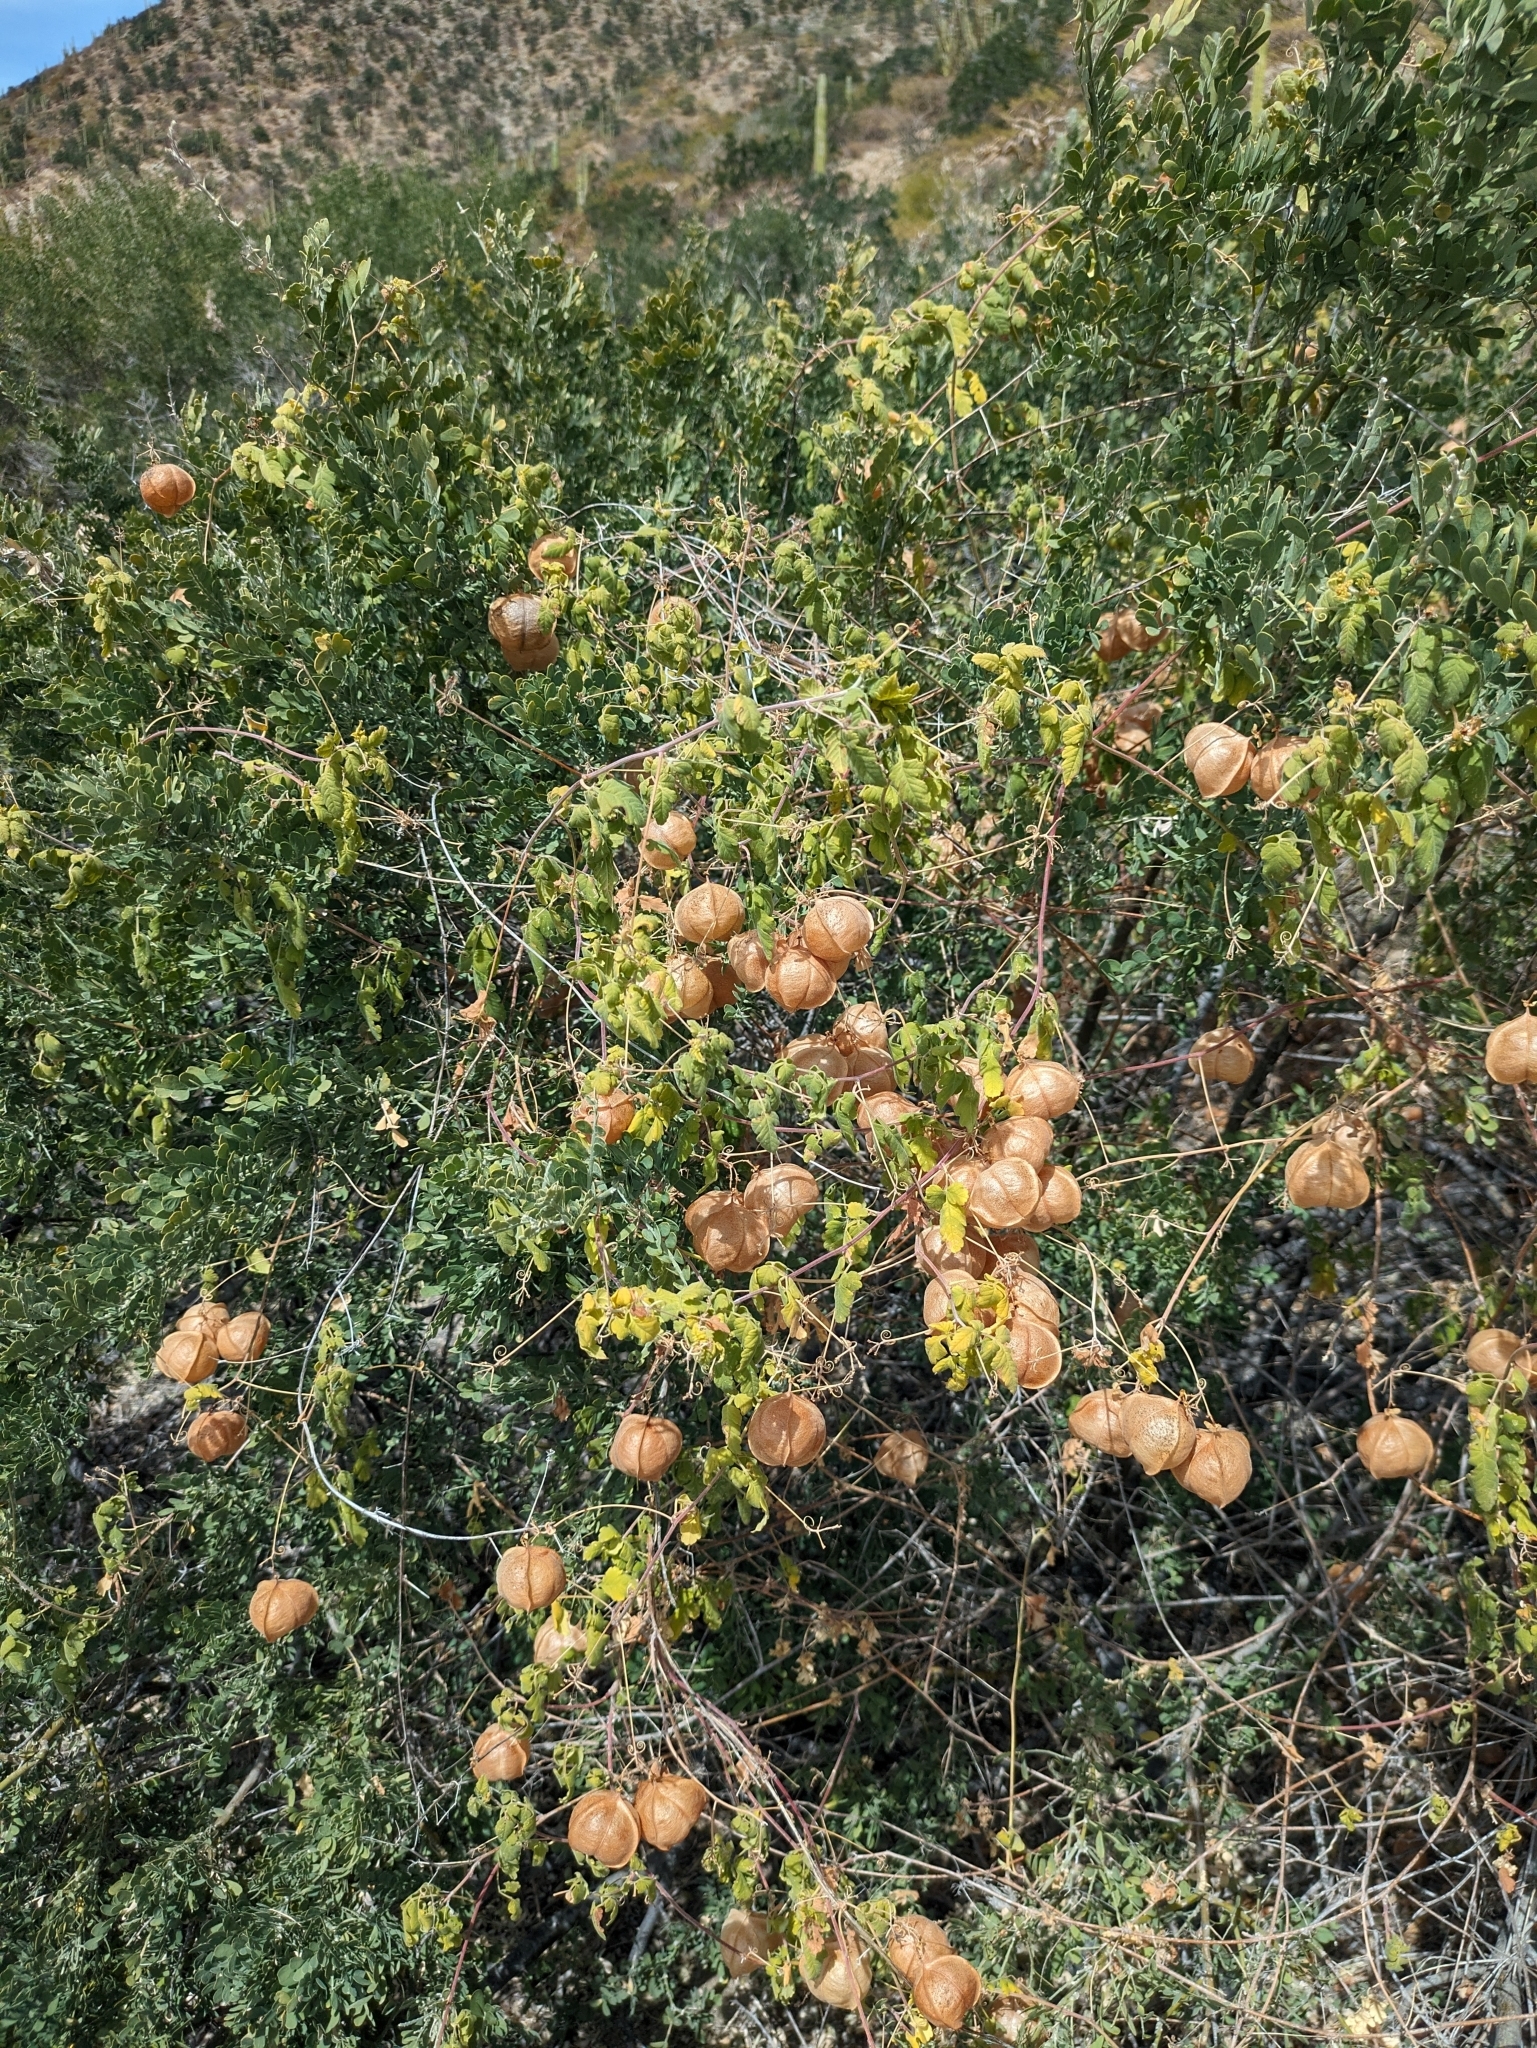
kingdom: Plantae
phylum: Tracheophyta
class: Magnoliopsida
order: Sapindales
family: Sapindaceae
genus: Cardiospermum
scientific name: Cardiospermum corindum
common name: Faux persil
